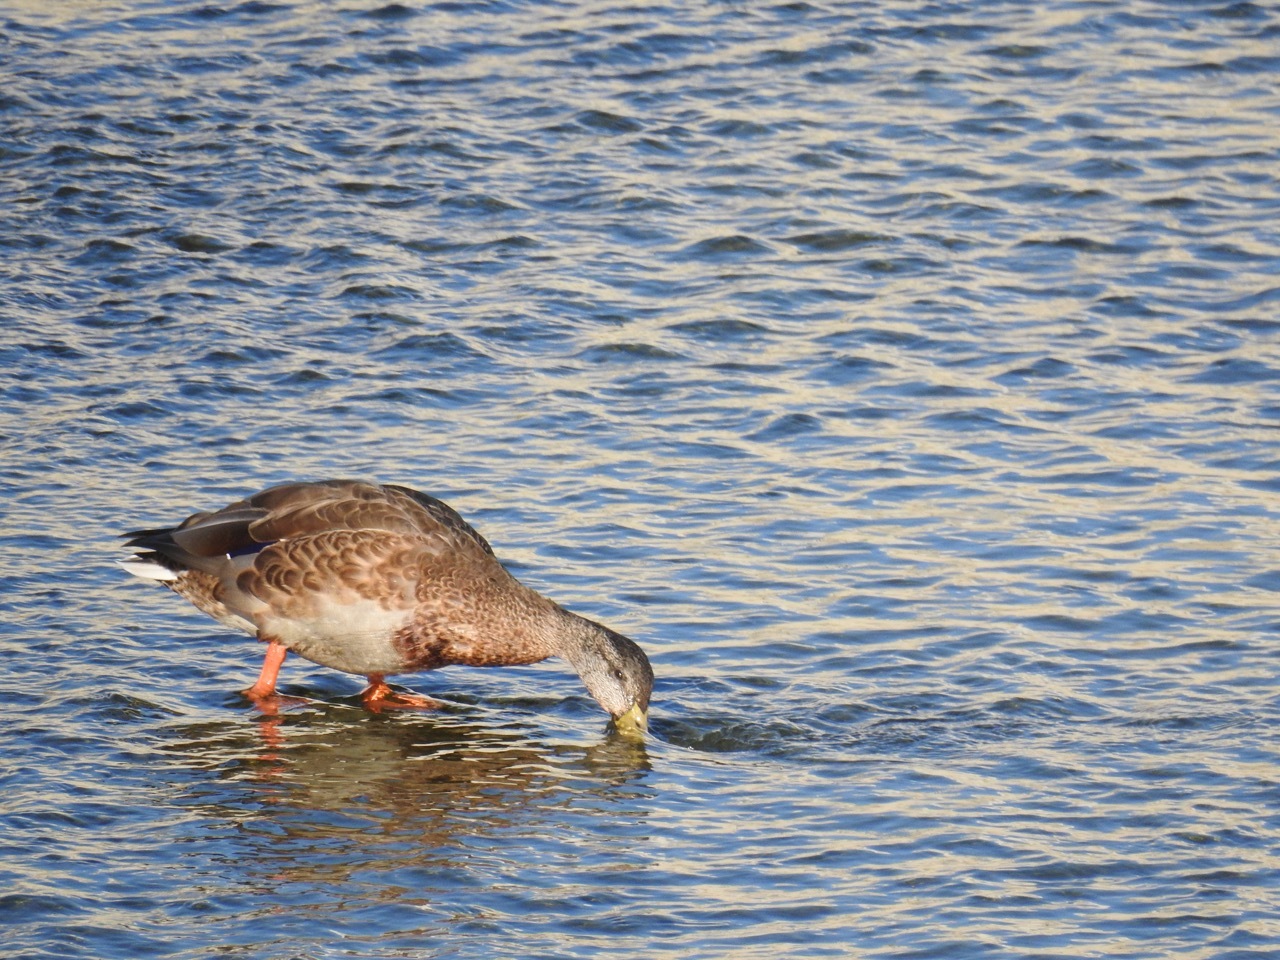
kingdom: Animalia
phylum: Chordata
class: Aves
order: Anseriformes
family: Anatidae
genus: Anas
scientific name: Anas platyrhynchos
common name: Mallard
